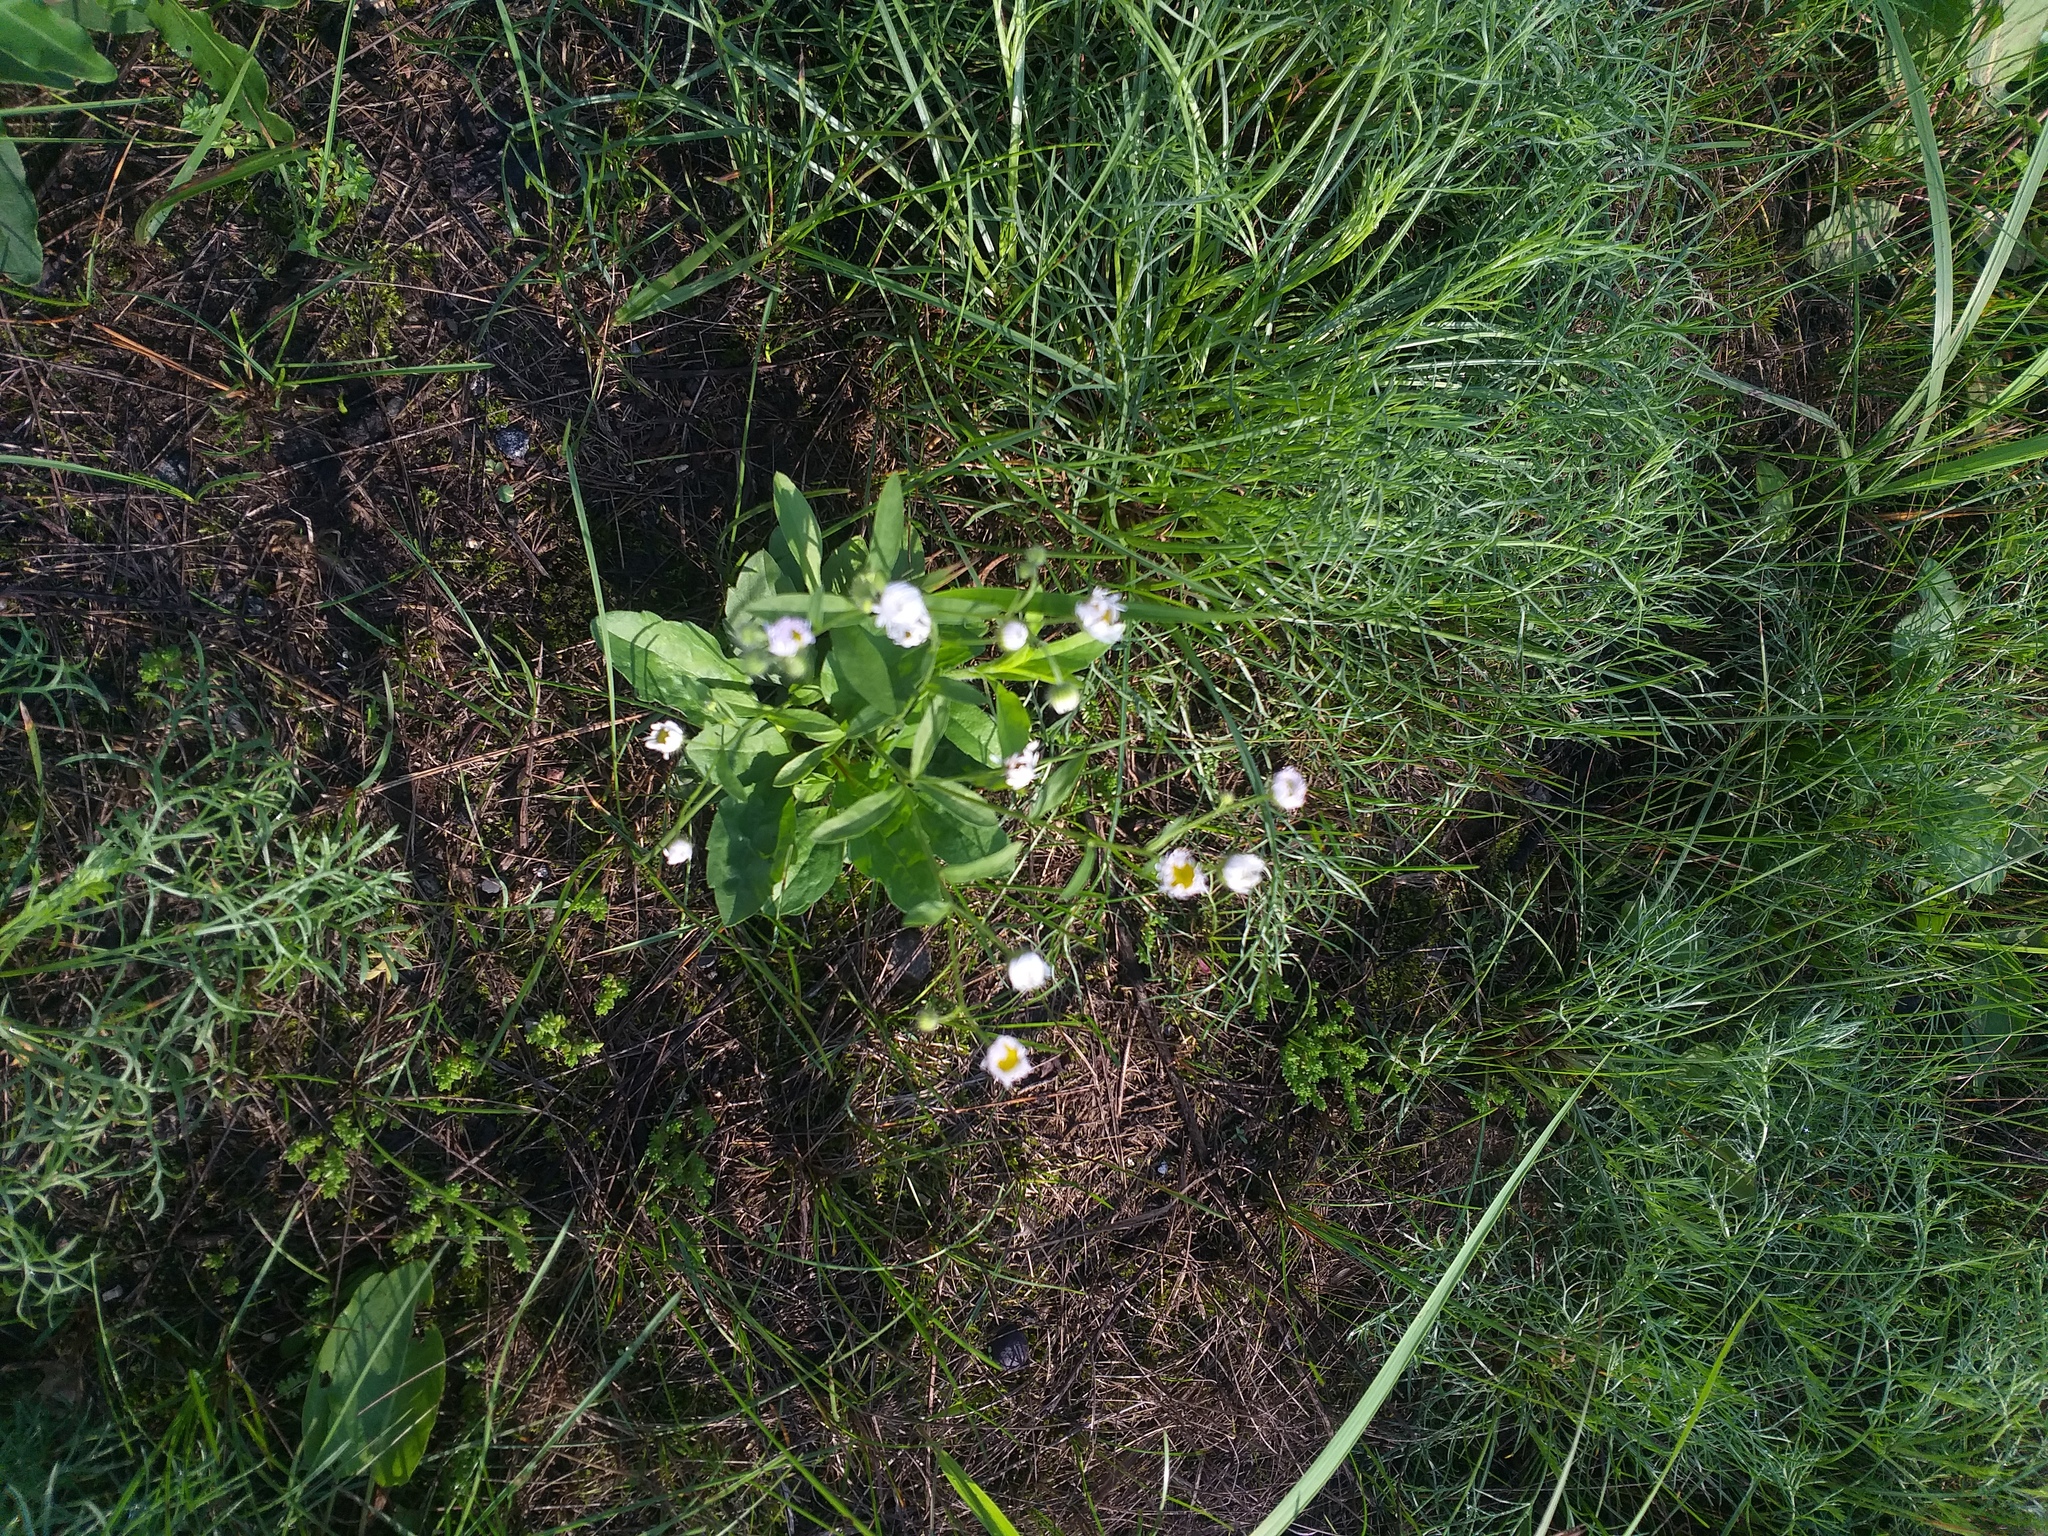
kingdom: Plantae
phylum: Tracheophyta
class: Magnoliopsida
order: Asterales
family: Asteraceae
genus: Erigeron
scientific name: Erigeron annuus
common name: Tall fleabane
